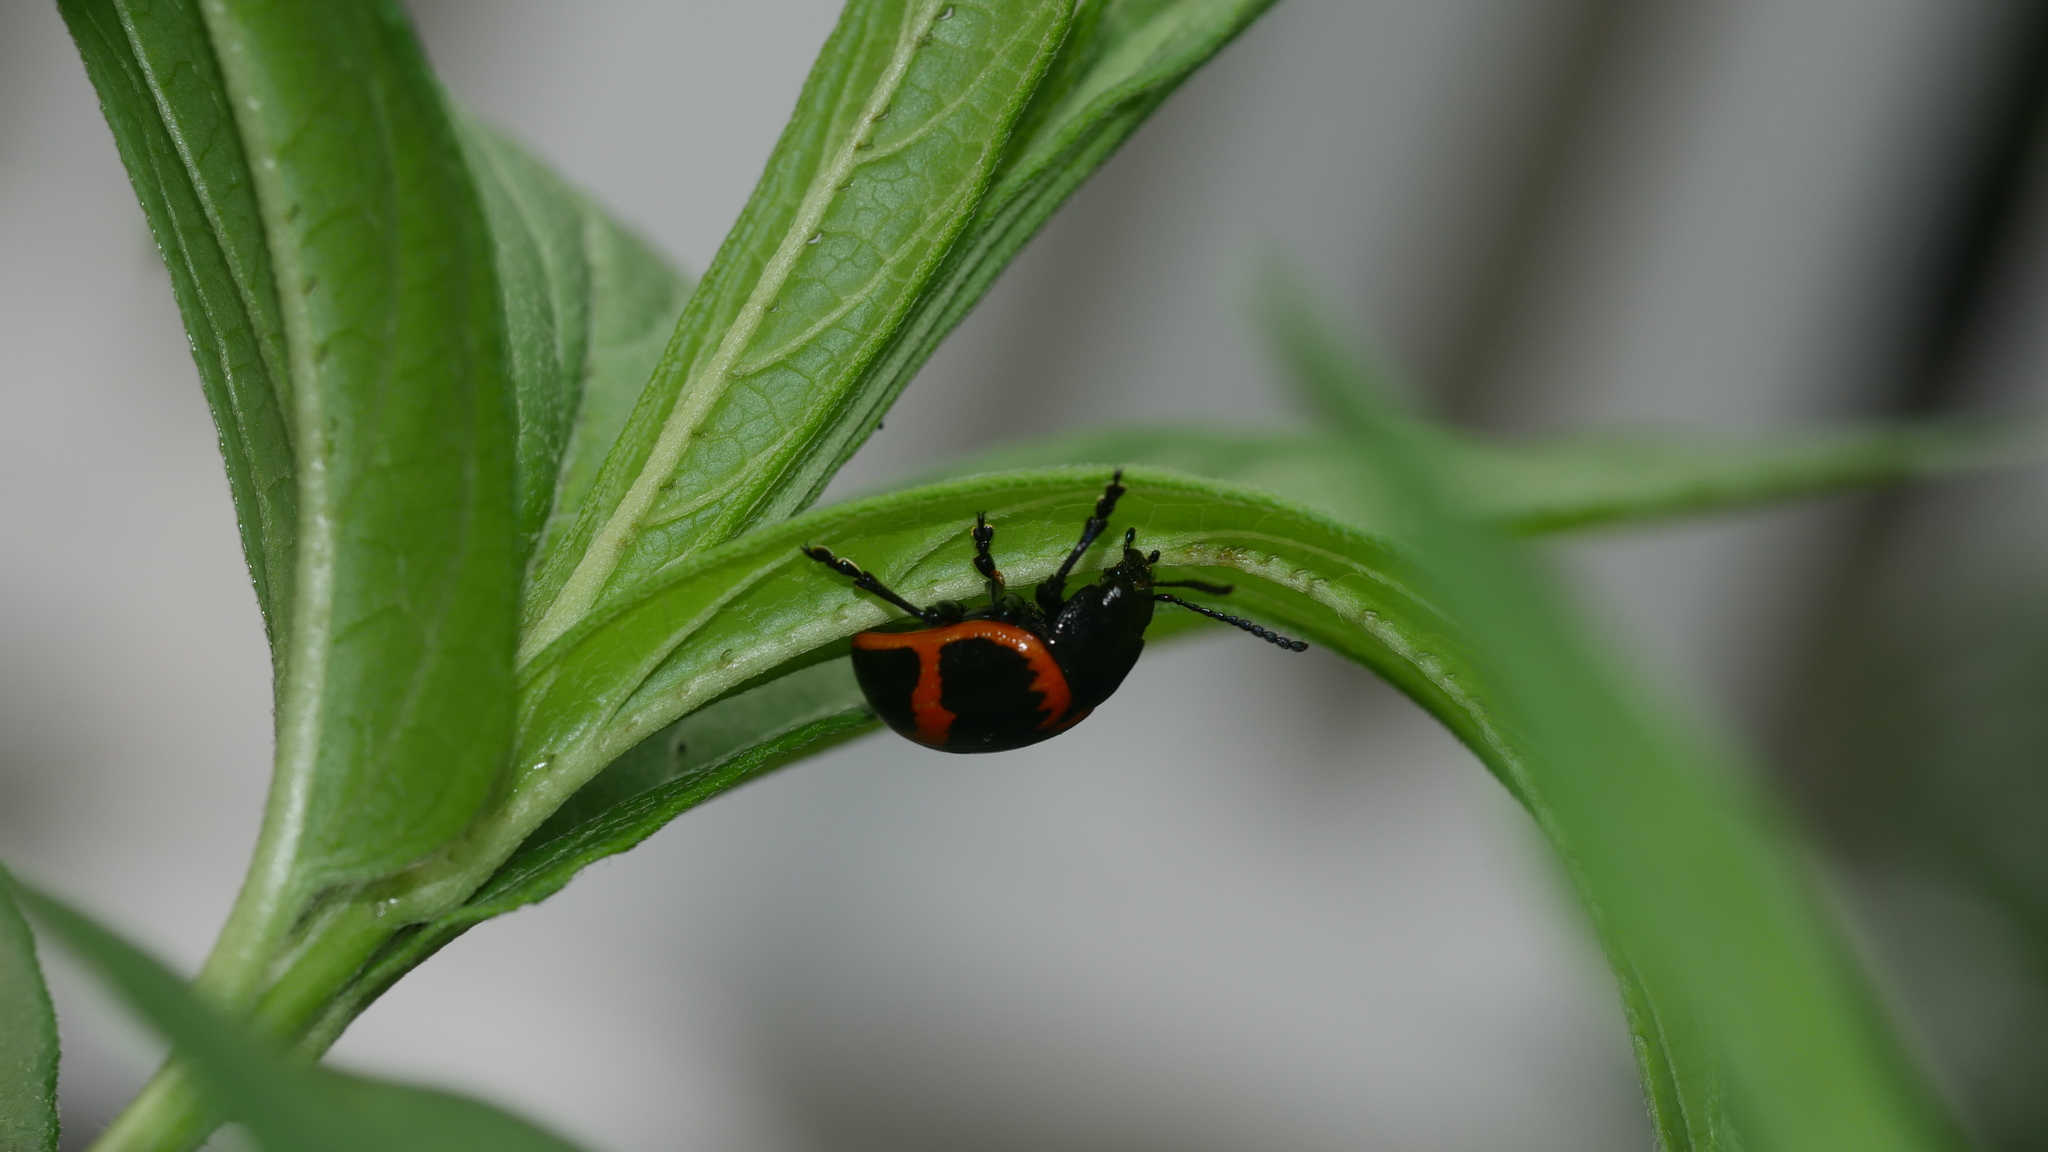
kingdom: Animalia
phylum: Arthropoda
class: Insecta
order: Coleoptera
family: Chrysomelidae
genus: Labidomera
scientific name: Labidomera clivicollis
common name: Swamp milkweed leaf beetle
